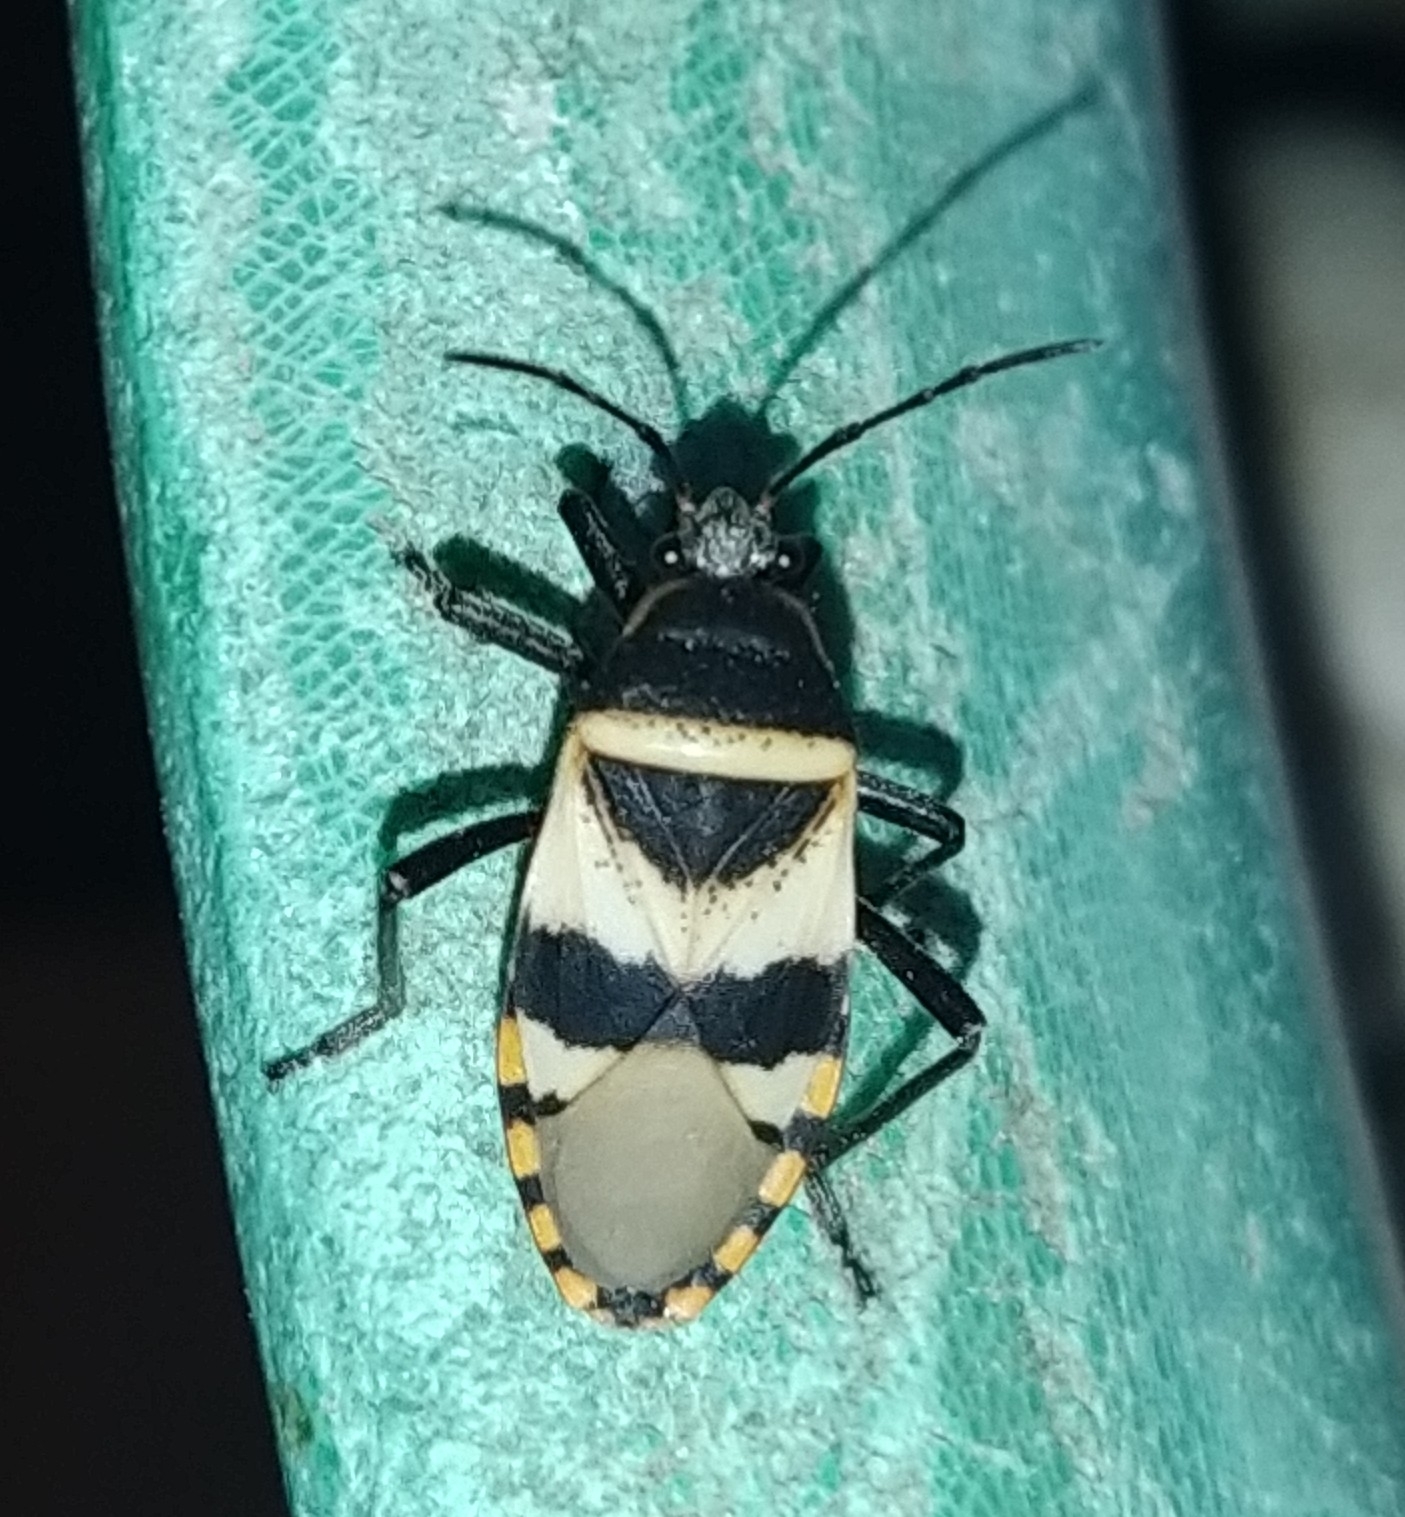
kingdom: Animalia
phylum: Arthropoda
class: Insecta
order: Hemiptera
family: Largidae
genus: Largus
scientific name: Largus fasciatus
